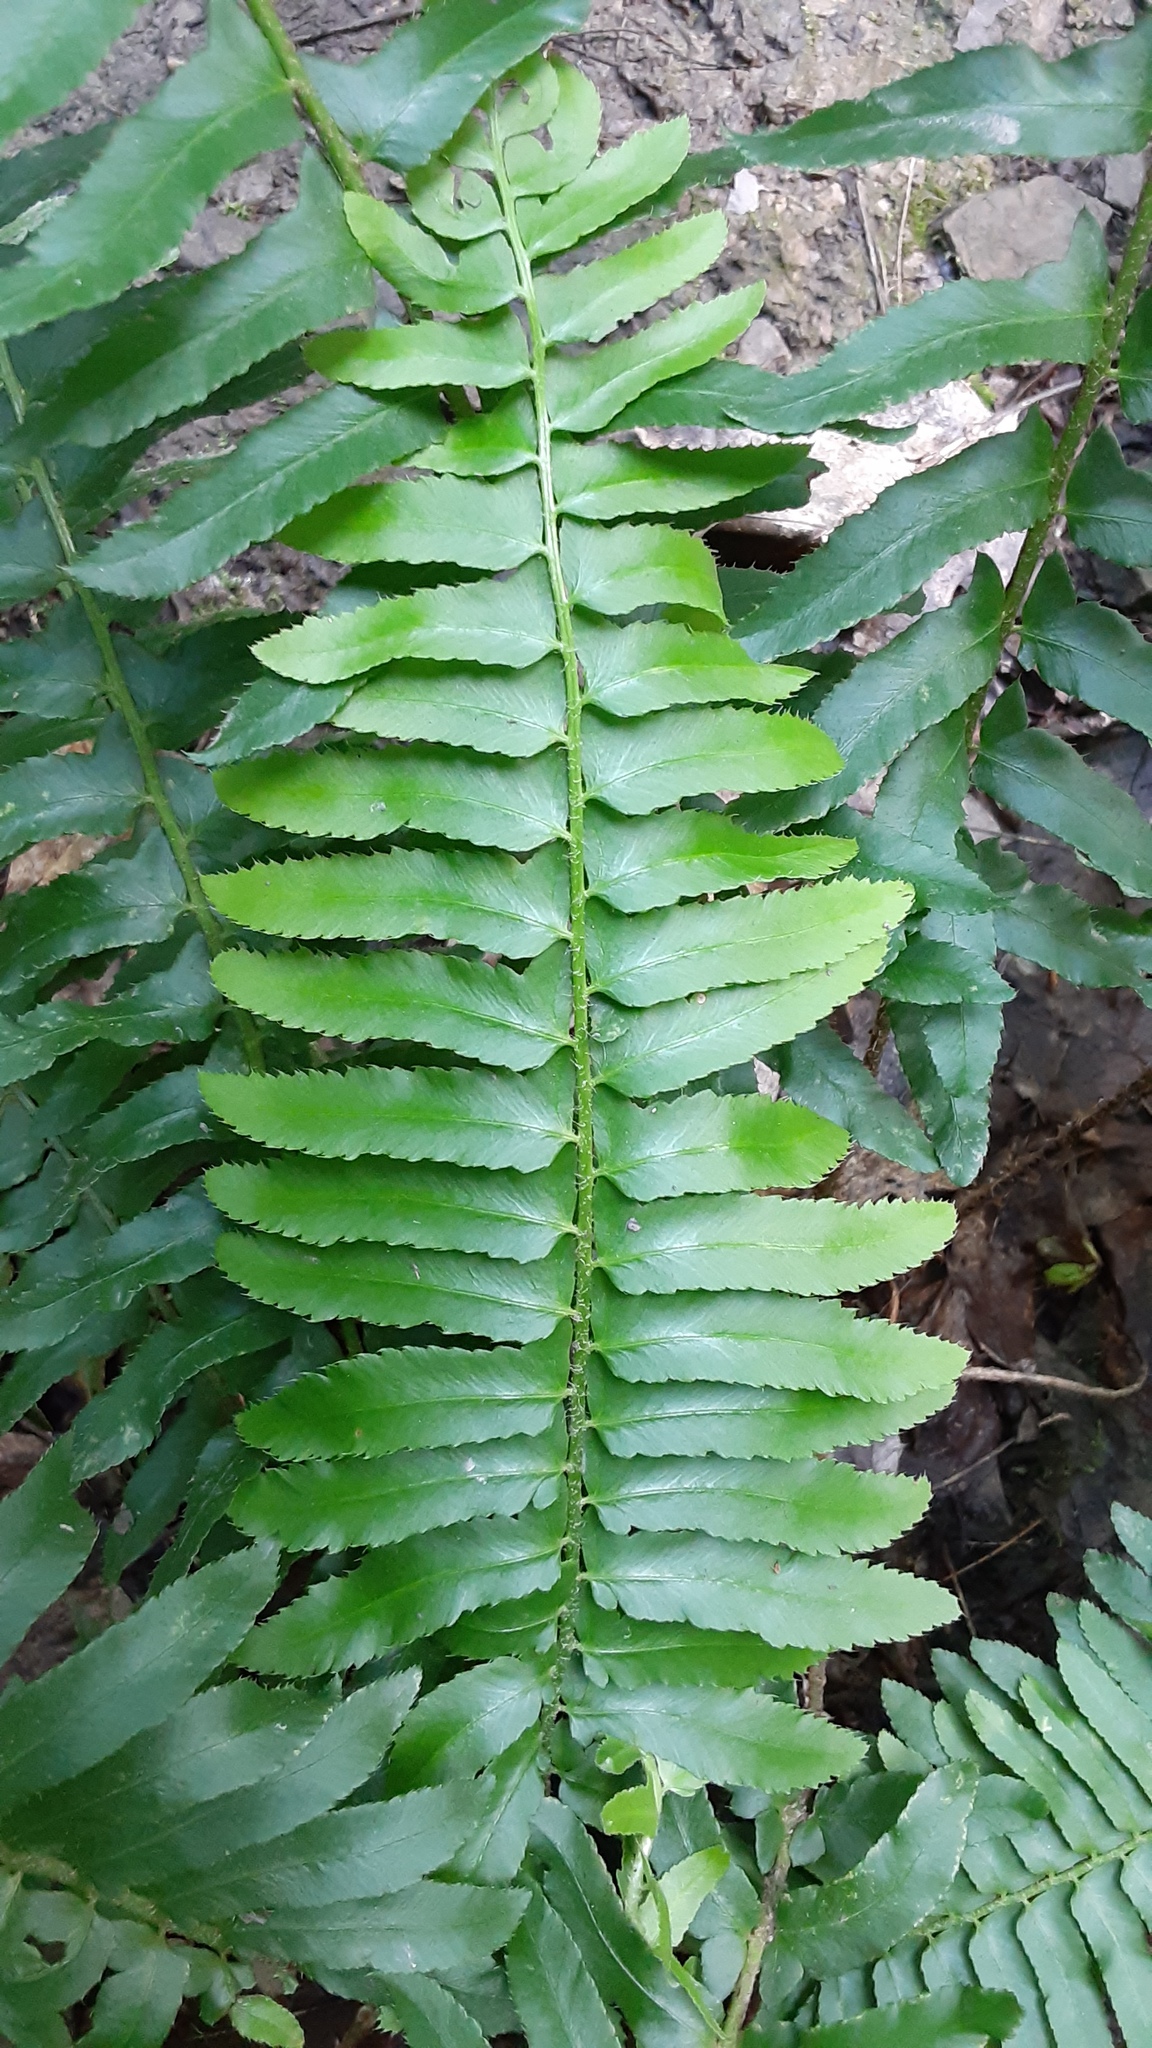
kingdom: Plantae
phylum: Tracheophyta
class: Polypodiopsida
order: Polypodiales
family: Dryopteridaceae
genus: Polystichum
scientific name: Polystichum acrostichoides
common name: Christmas fern
